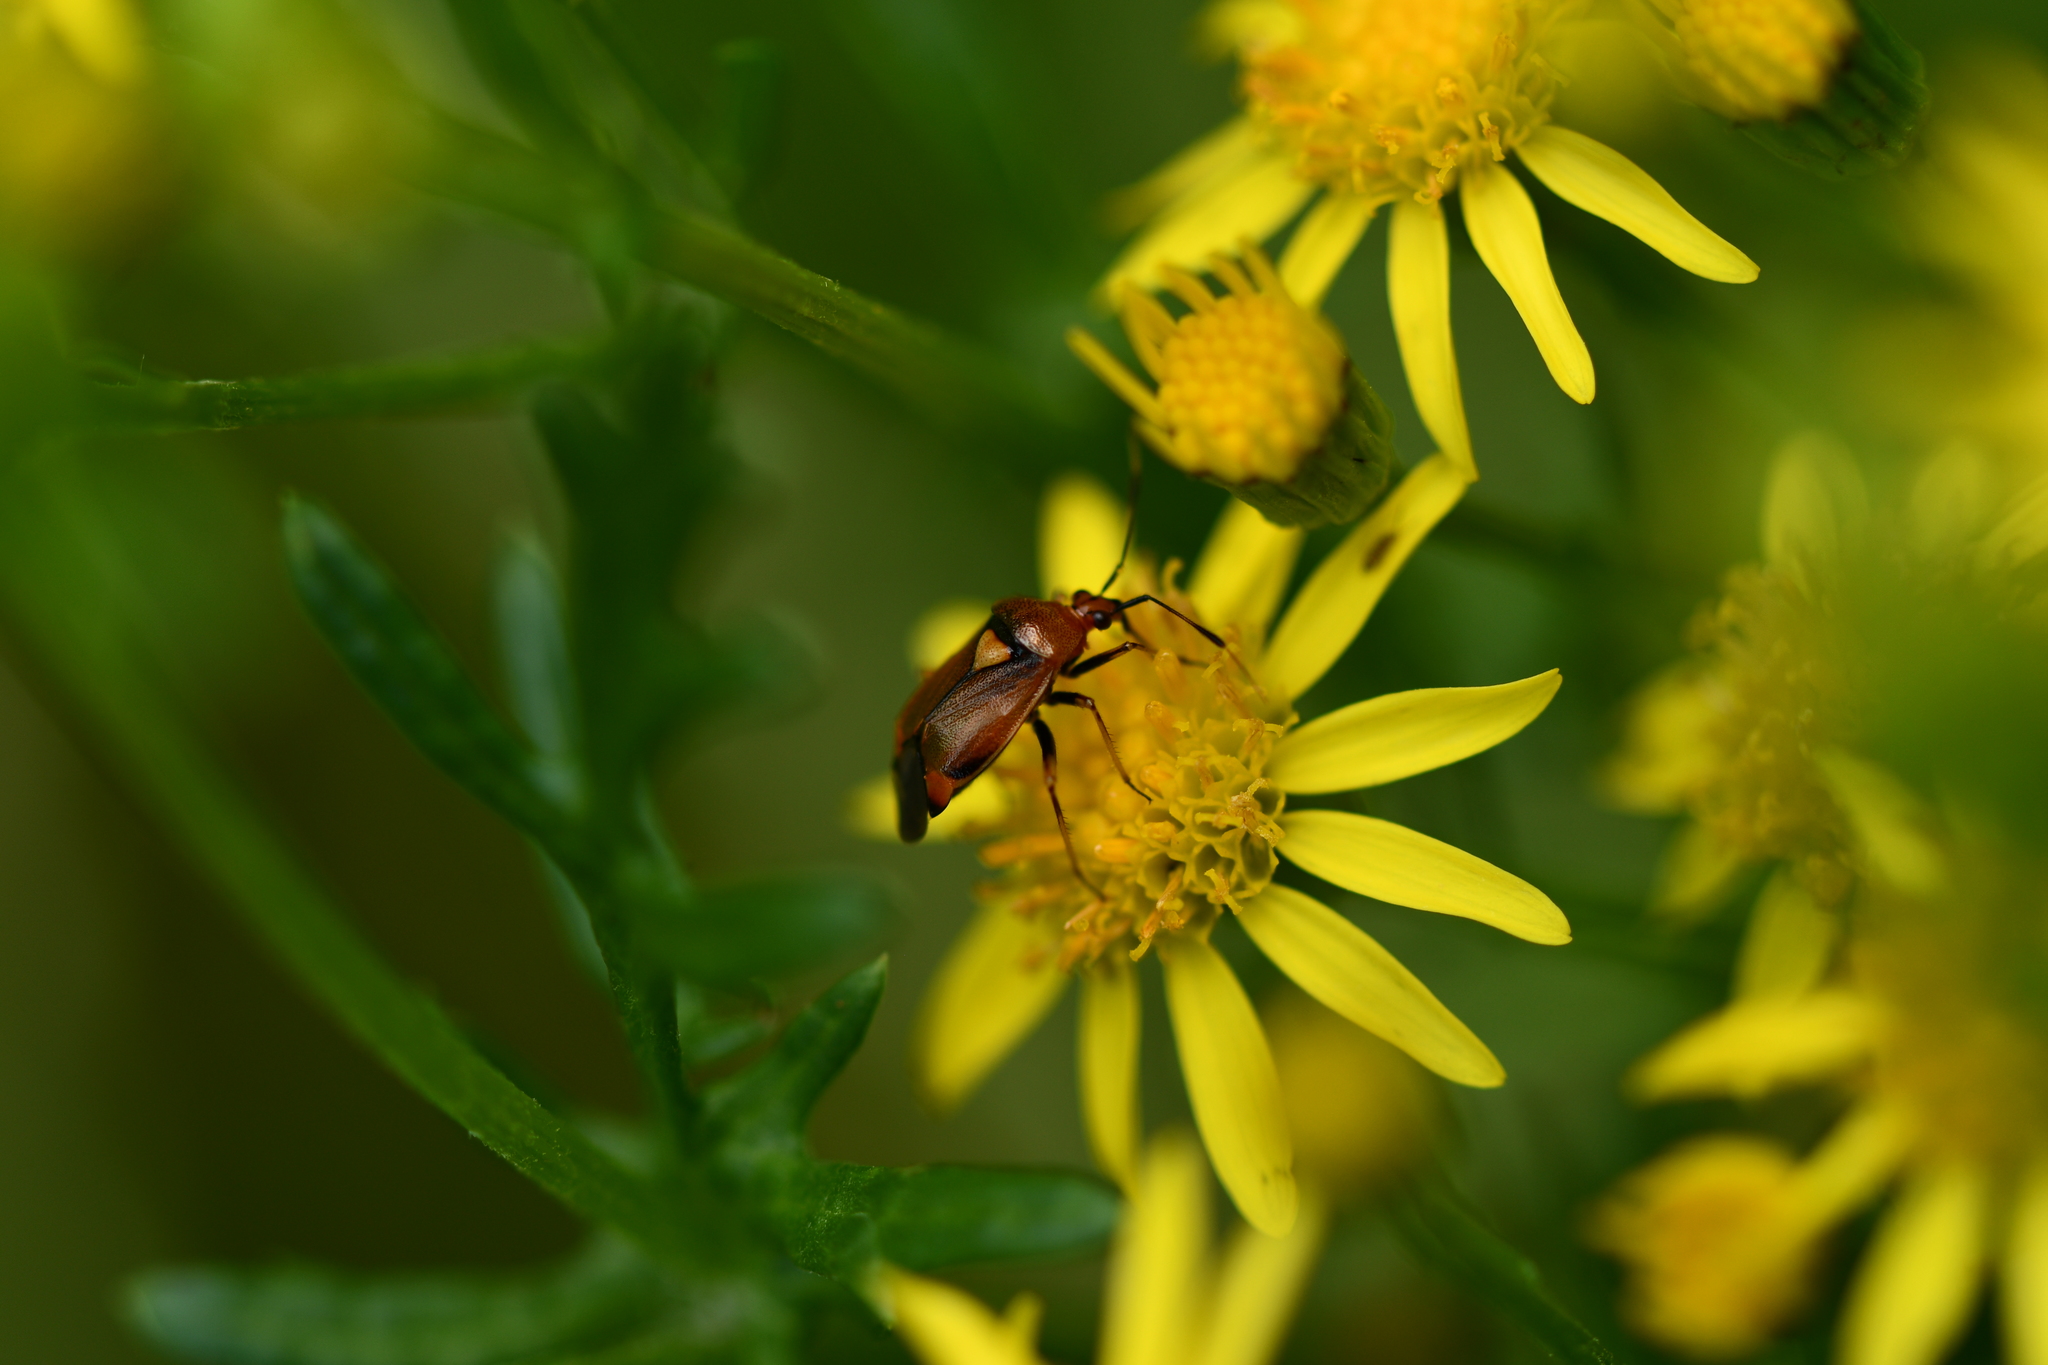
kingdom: Animalia
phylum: Arthropoda
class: Insecta
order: Hemiptera
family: Miridae
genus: Deraeocoris
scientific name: Deraeocoris ruber
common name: Plant bug
